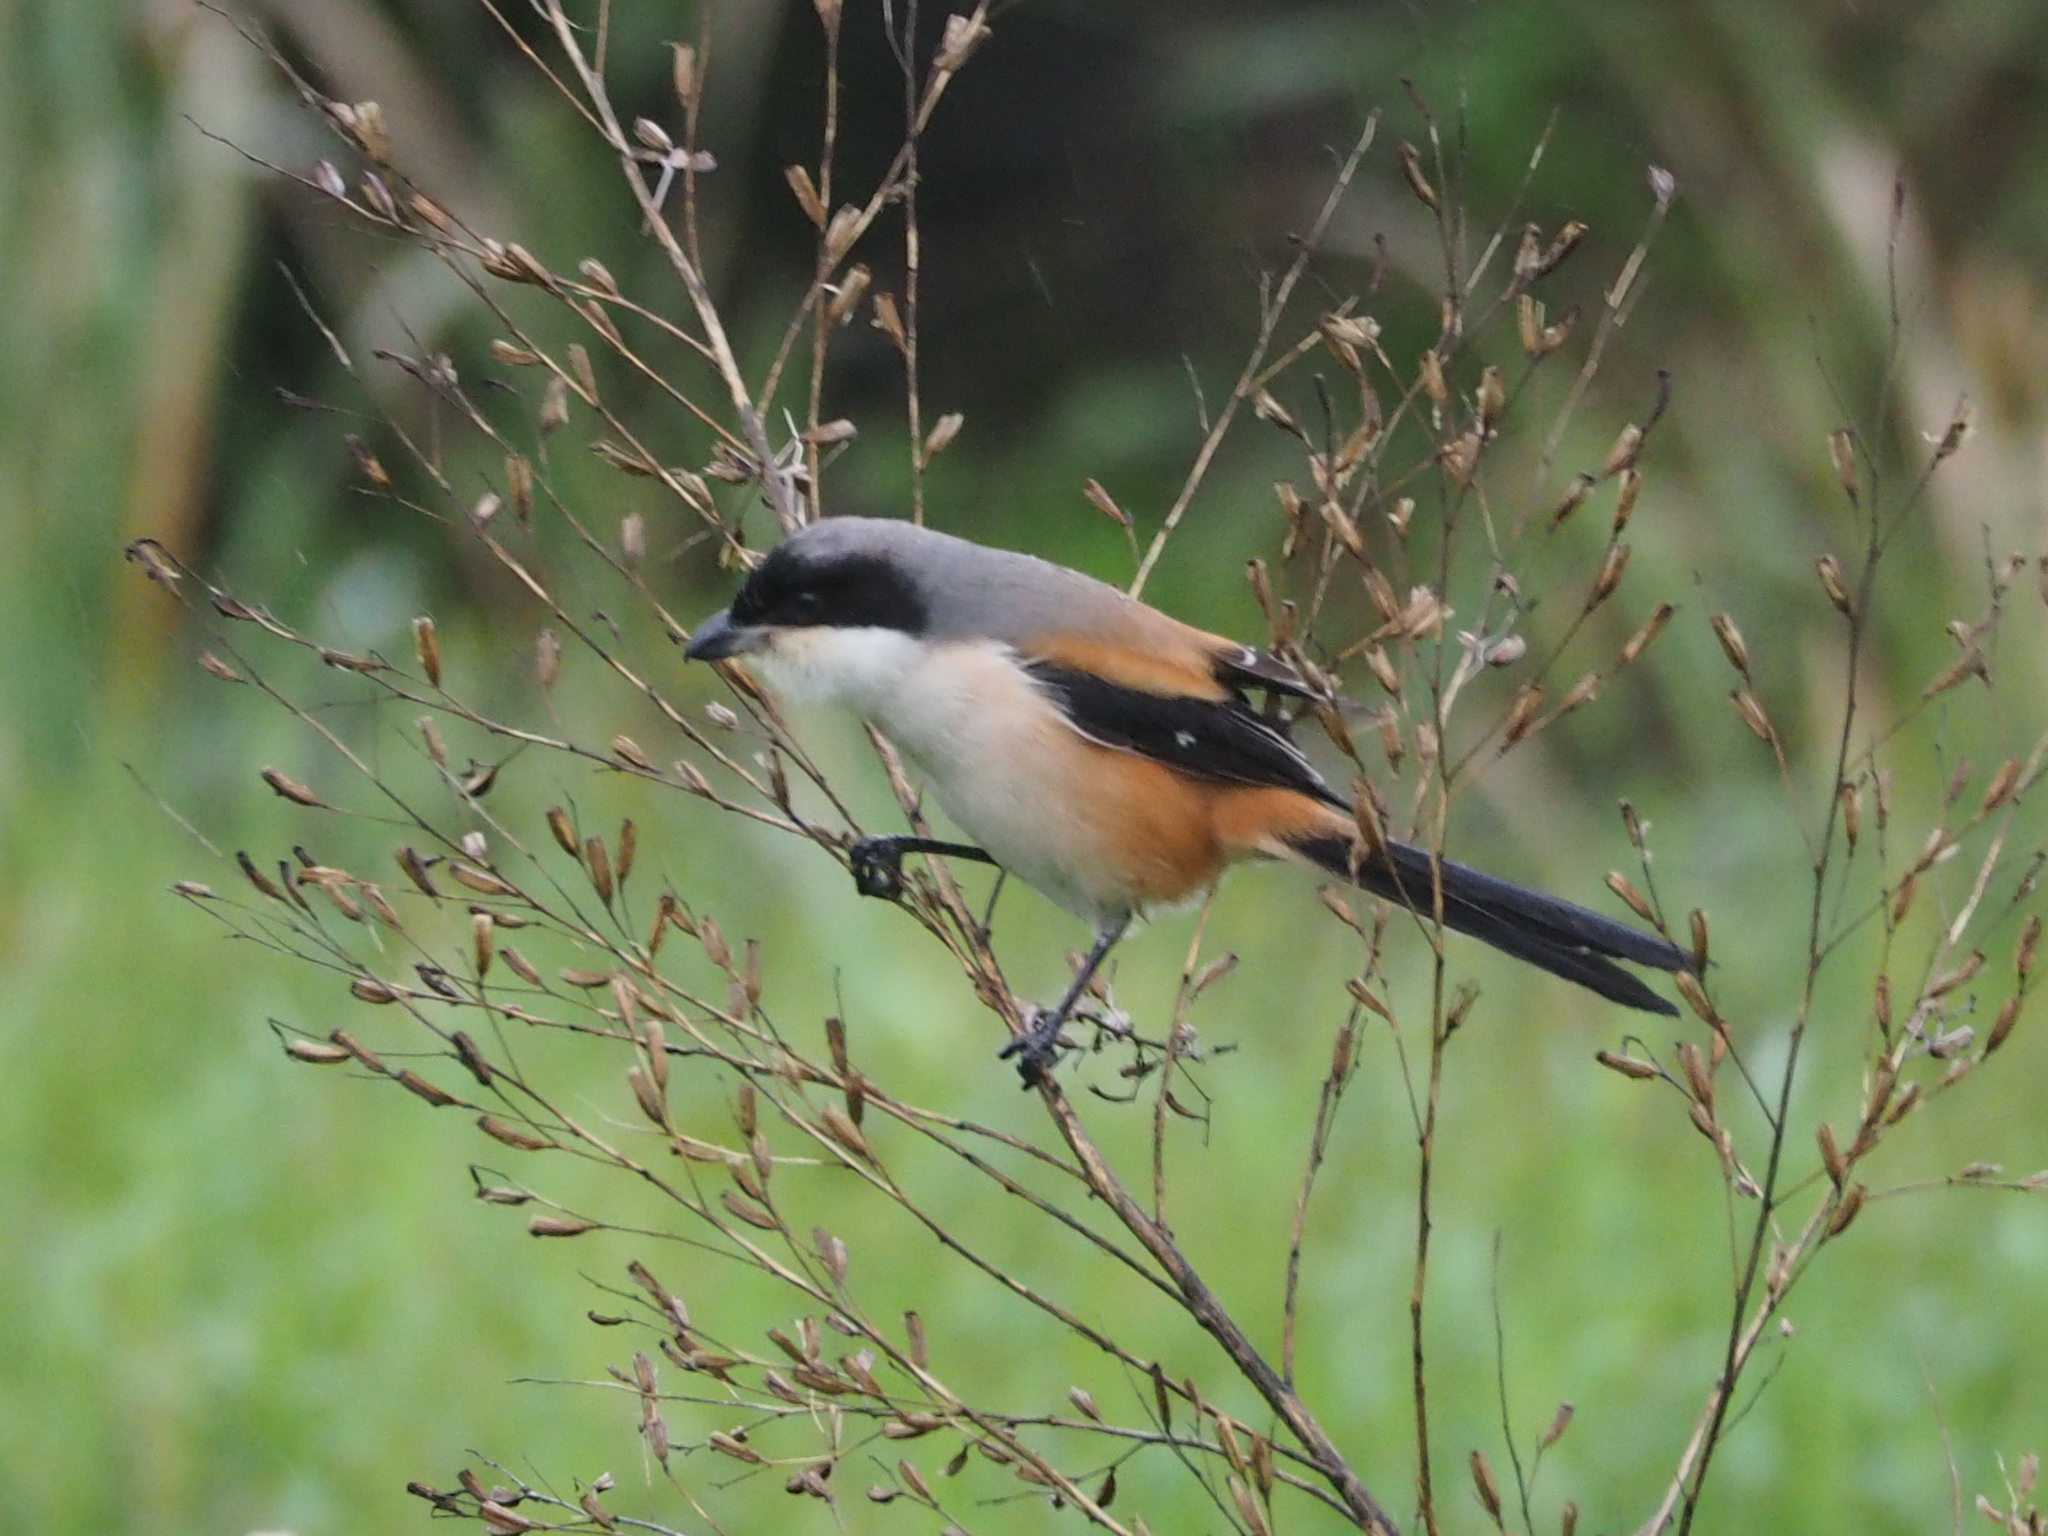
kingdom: Animalia
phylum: Chordata
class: Aves
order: Passeriformes
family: Laniidae
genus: Lanius
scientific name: Lanius schach
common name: Long-tailed shrike
